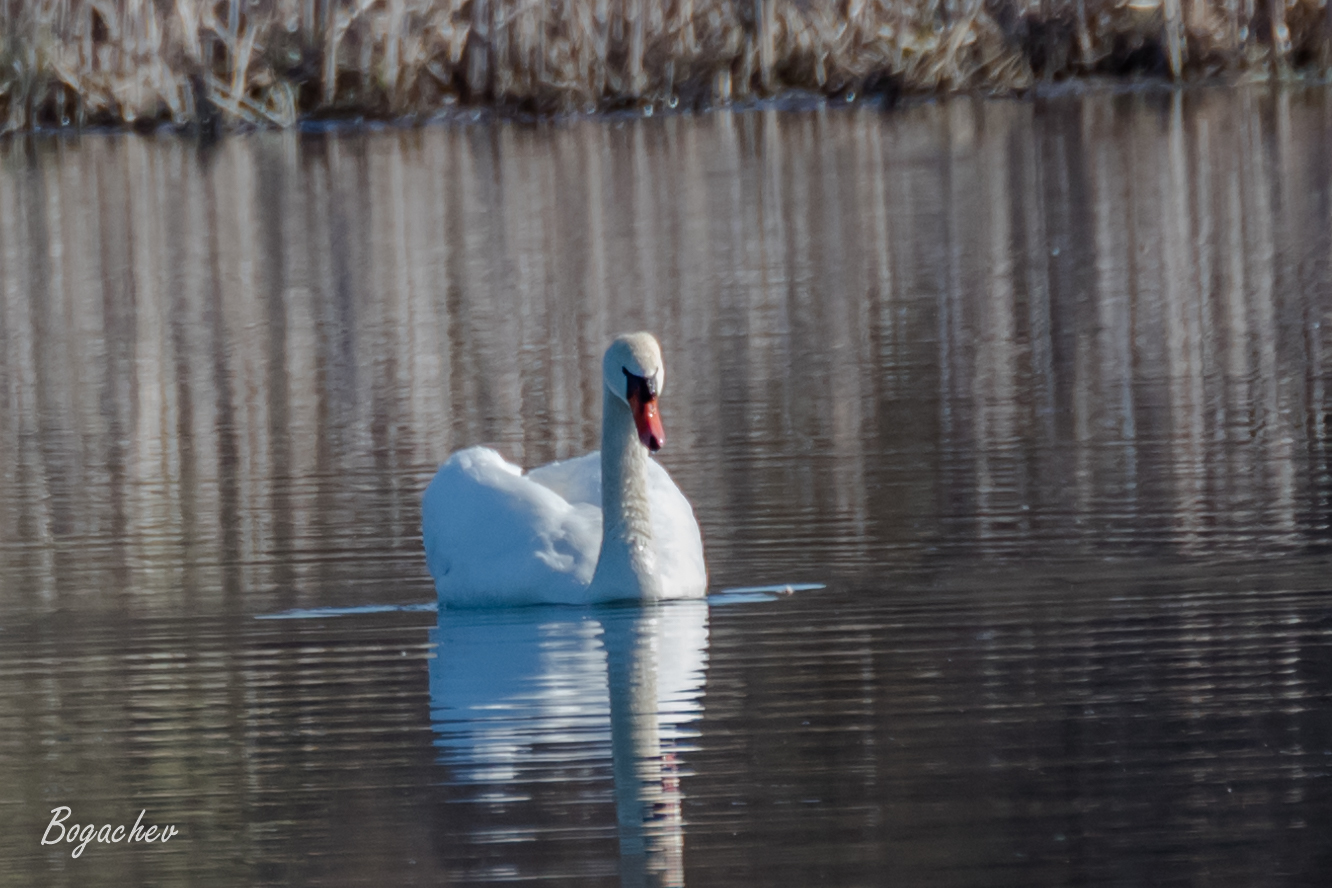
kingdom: Animalia
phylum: Chordata
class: Aves
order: Anseriformes
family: Anatidae
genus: Cygnus
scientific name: Cygnus olor
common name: Mute swan
